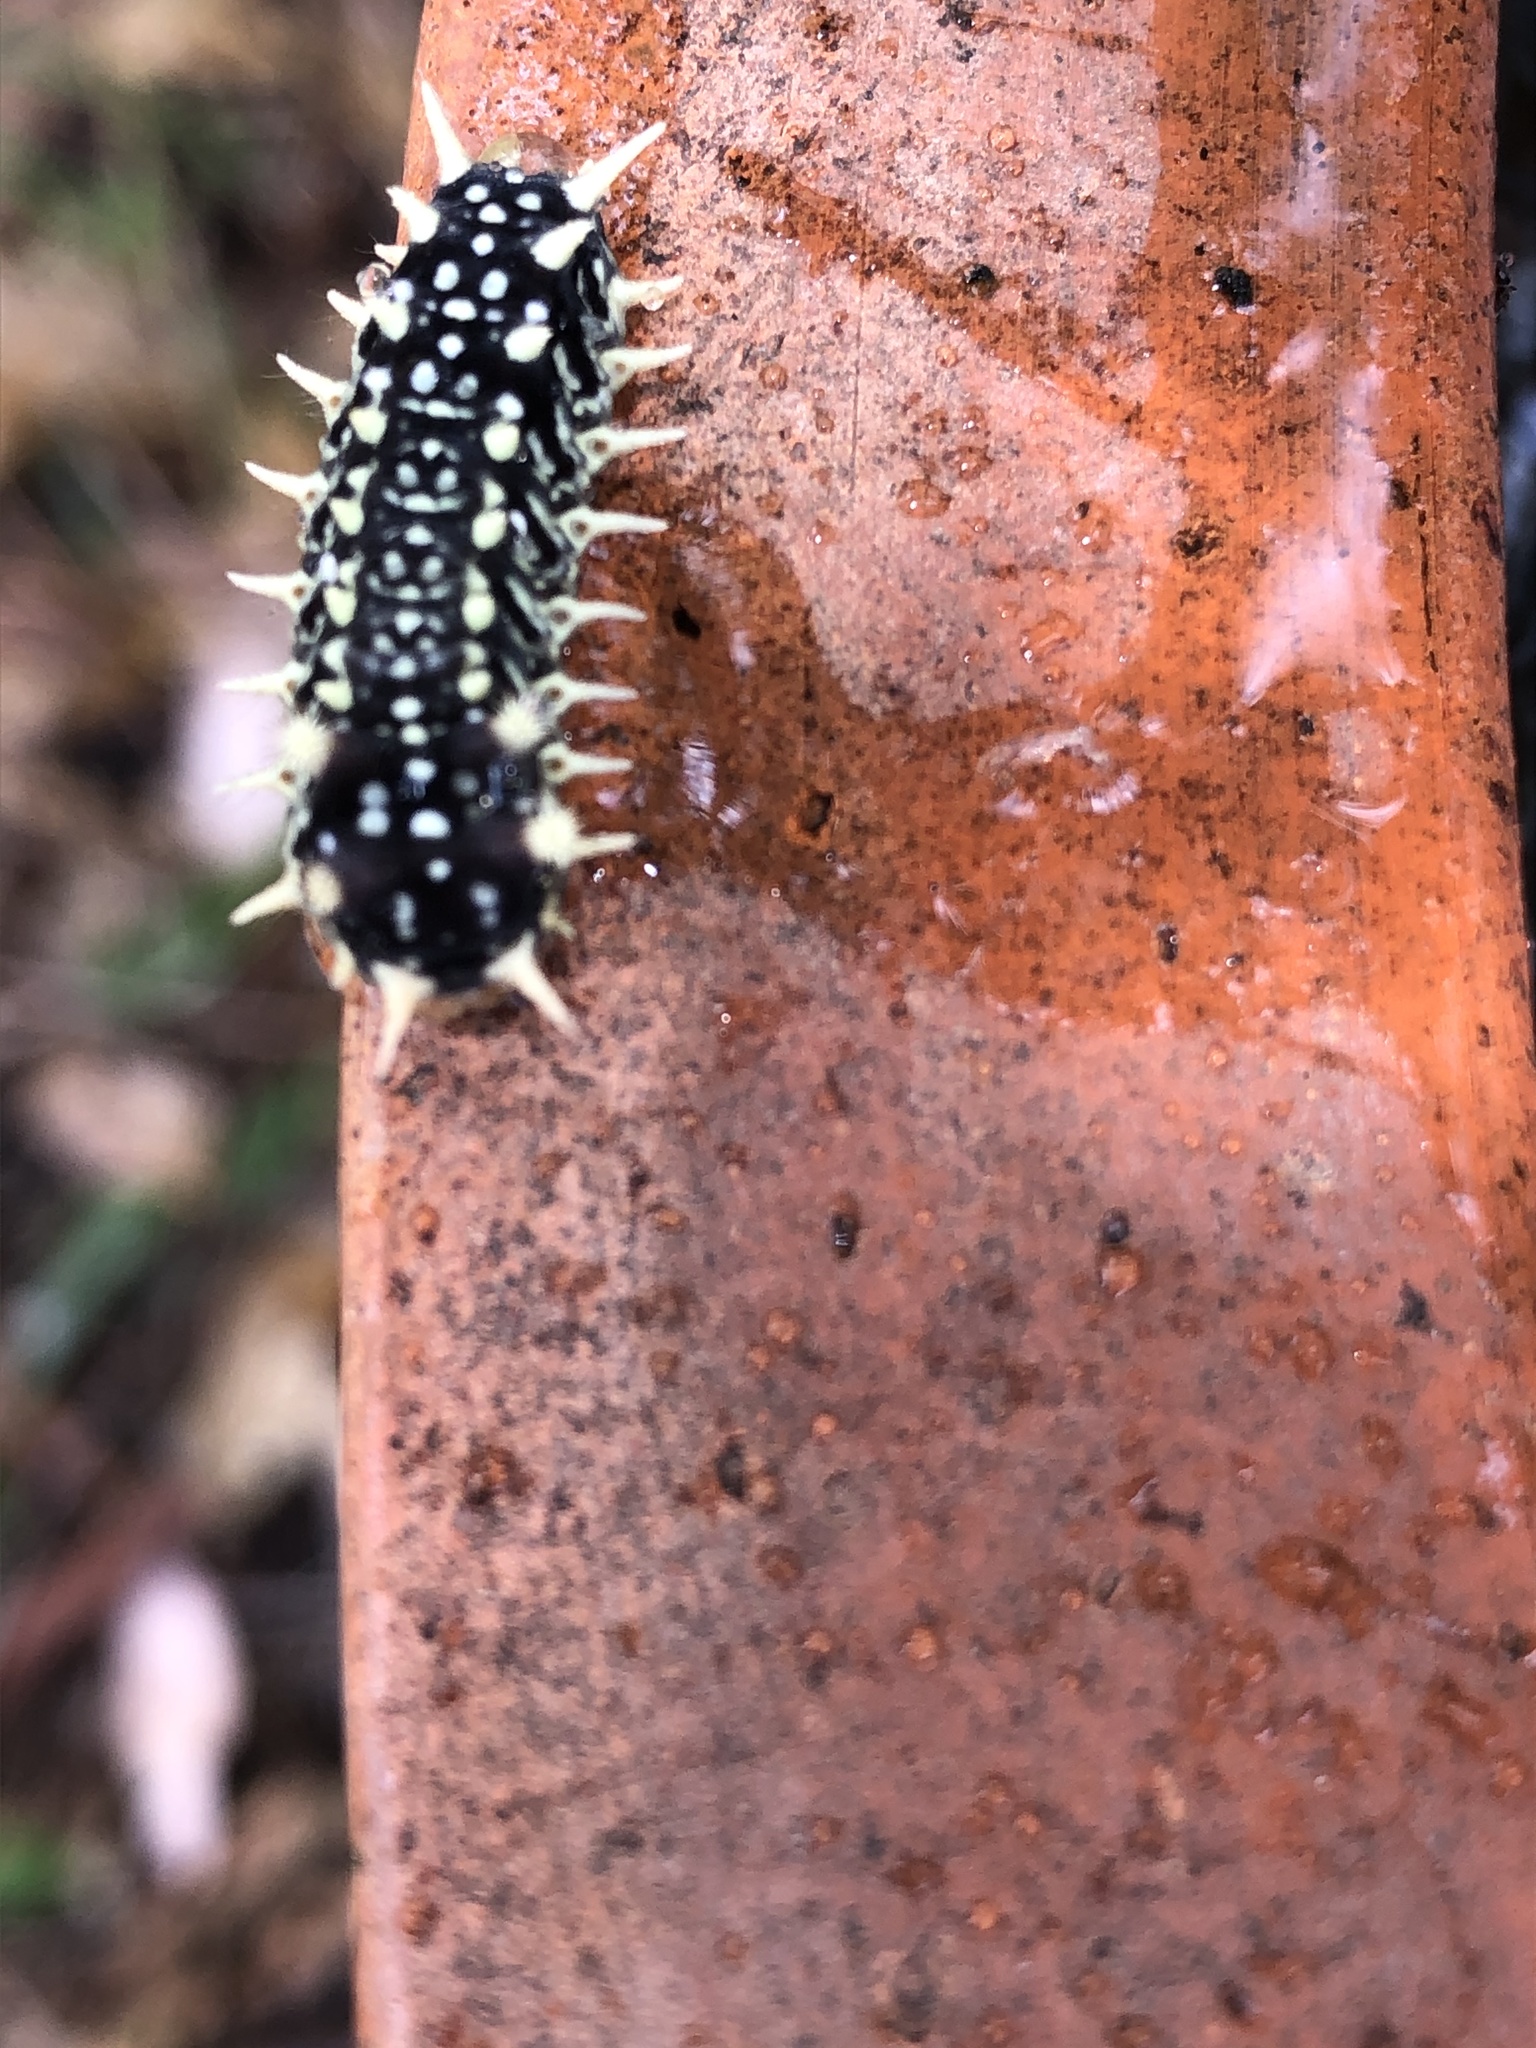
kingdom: Animalia
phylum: Arthropoda
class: Insecta
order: Lepidoptera
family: Limacodidae
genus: Doratifera
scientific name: Doratifera casta
